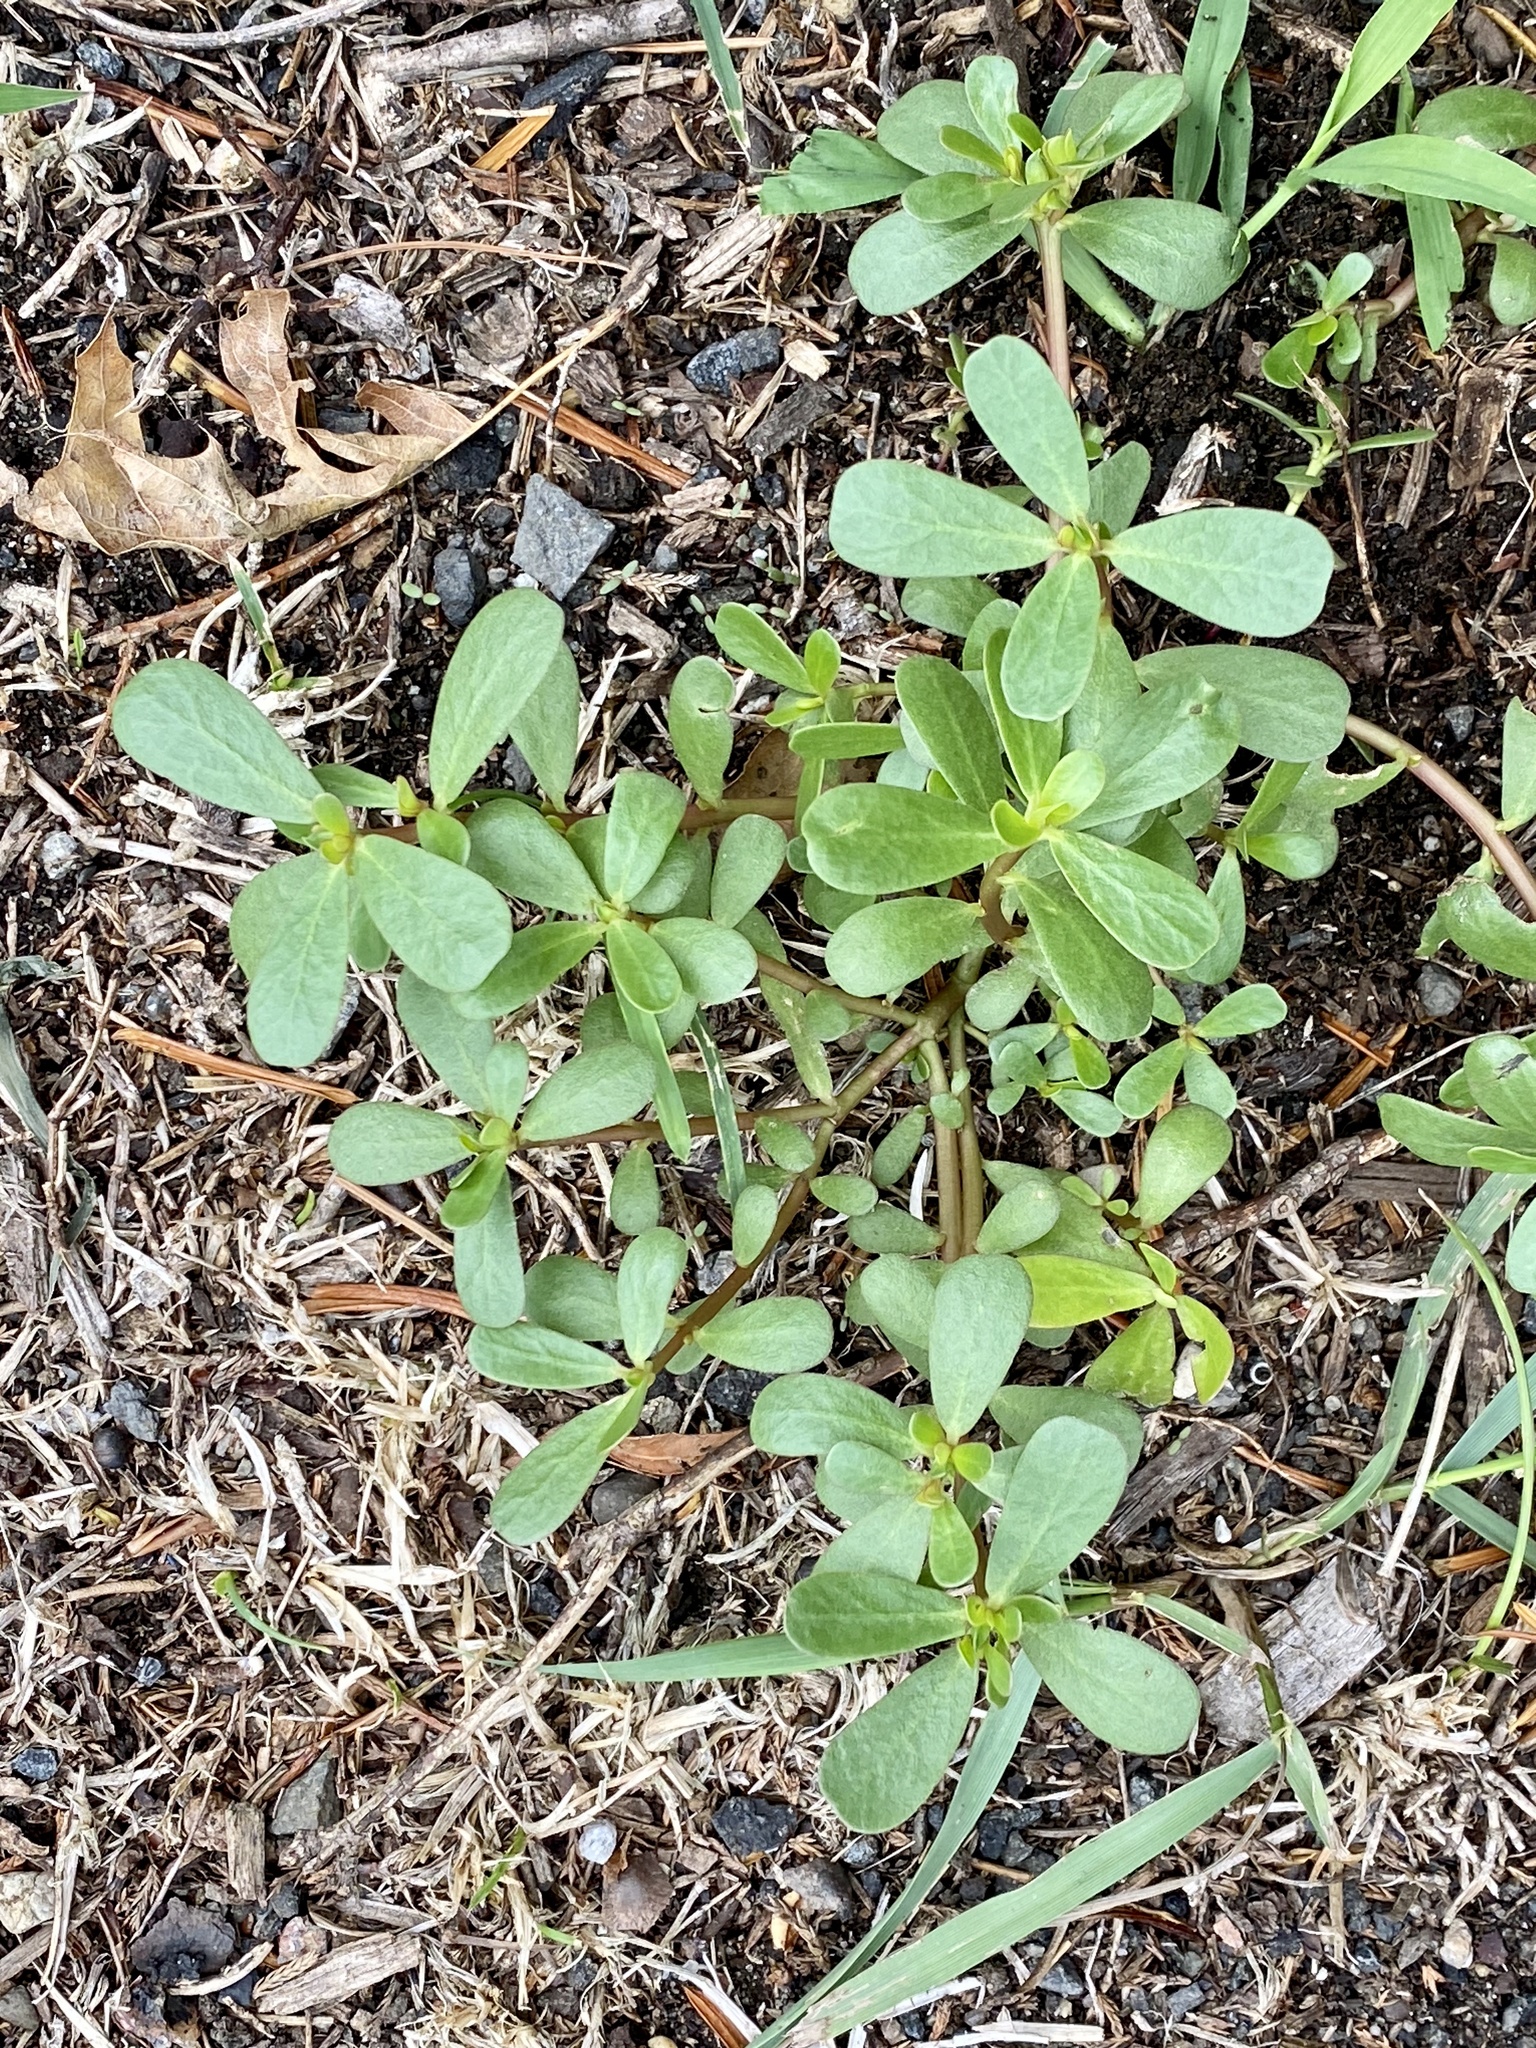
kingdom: Plantae
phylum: Tracheophyta
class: Magnoliopsida
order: Caryophyllales
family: Portulacaceae
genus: Portulaca
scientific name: Portulaca oleracea
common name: Common purslane
